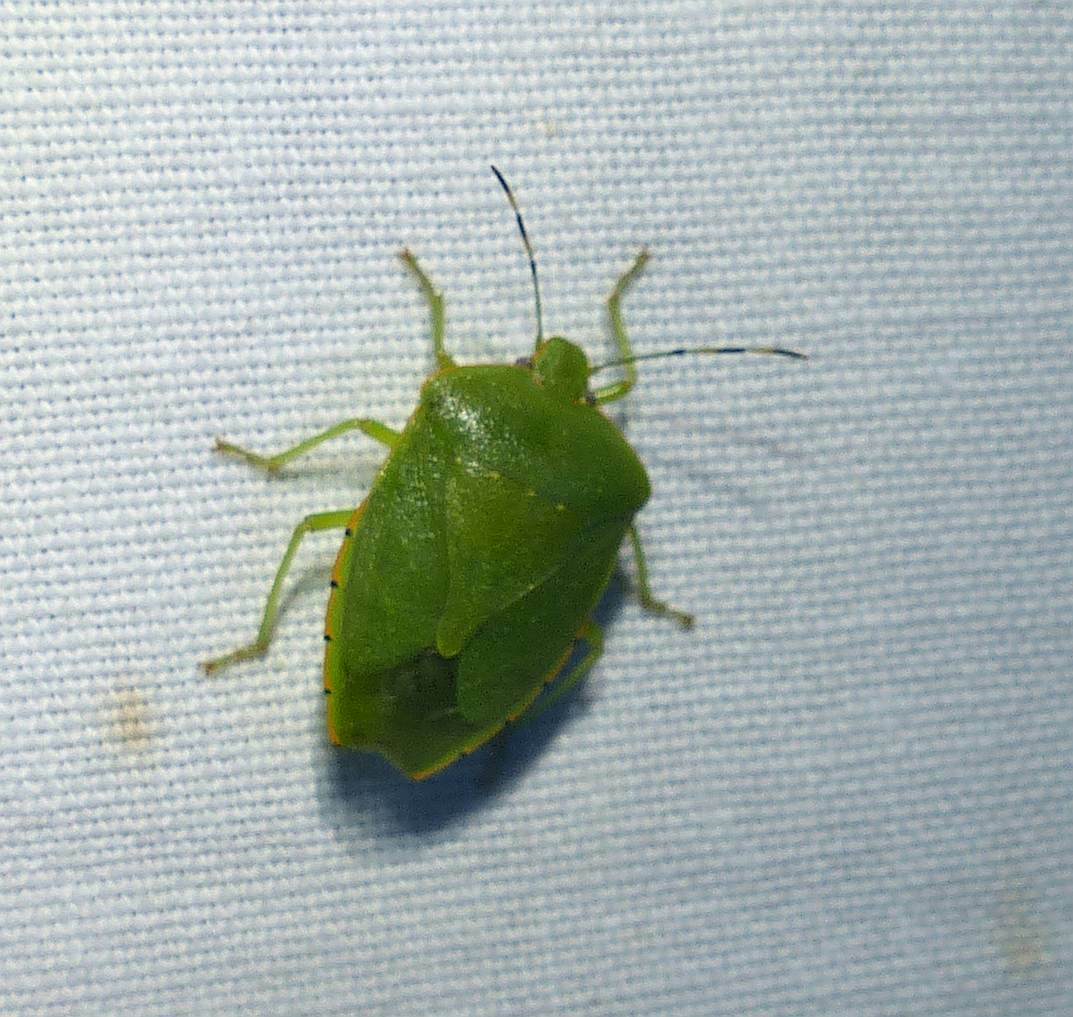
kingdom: Animalia
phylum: Arthropoda
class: Insecta
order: Hemiptera
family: Pentatomidae
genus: Chinavia
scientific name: Chinavia hilaris
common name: Green stink bug
